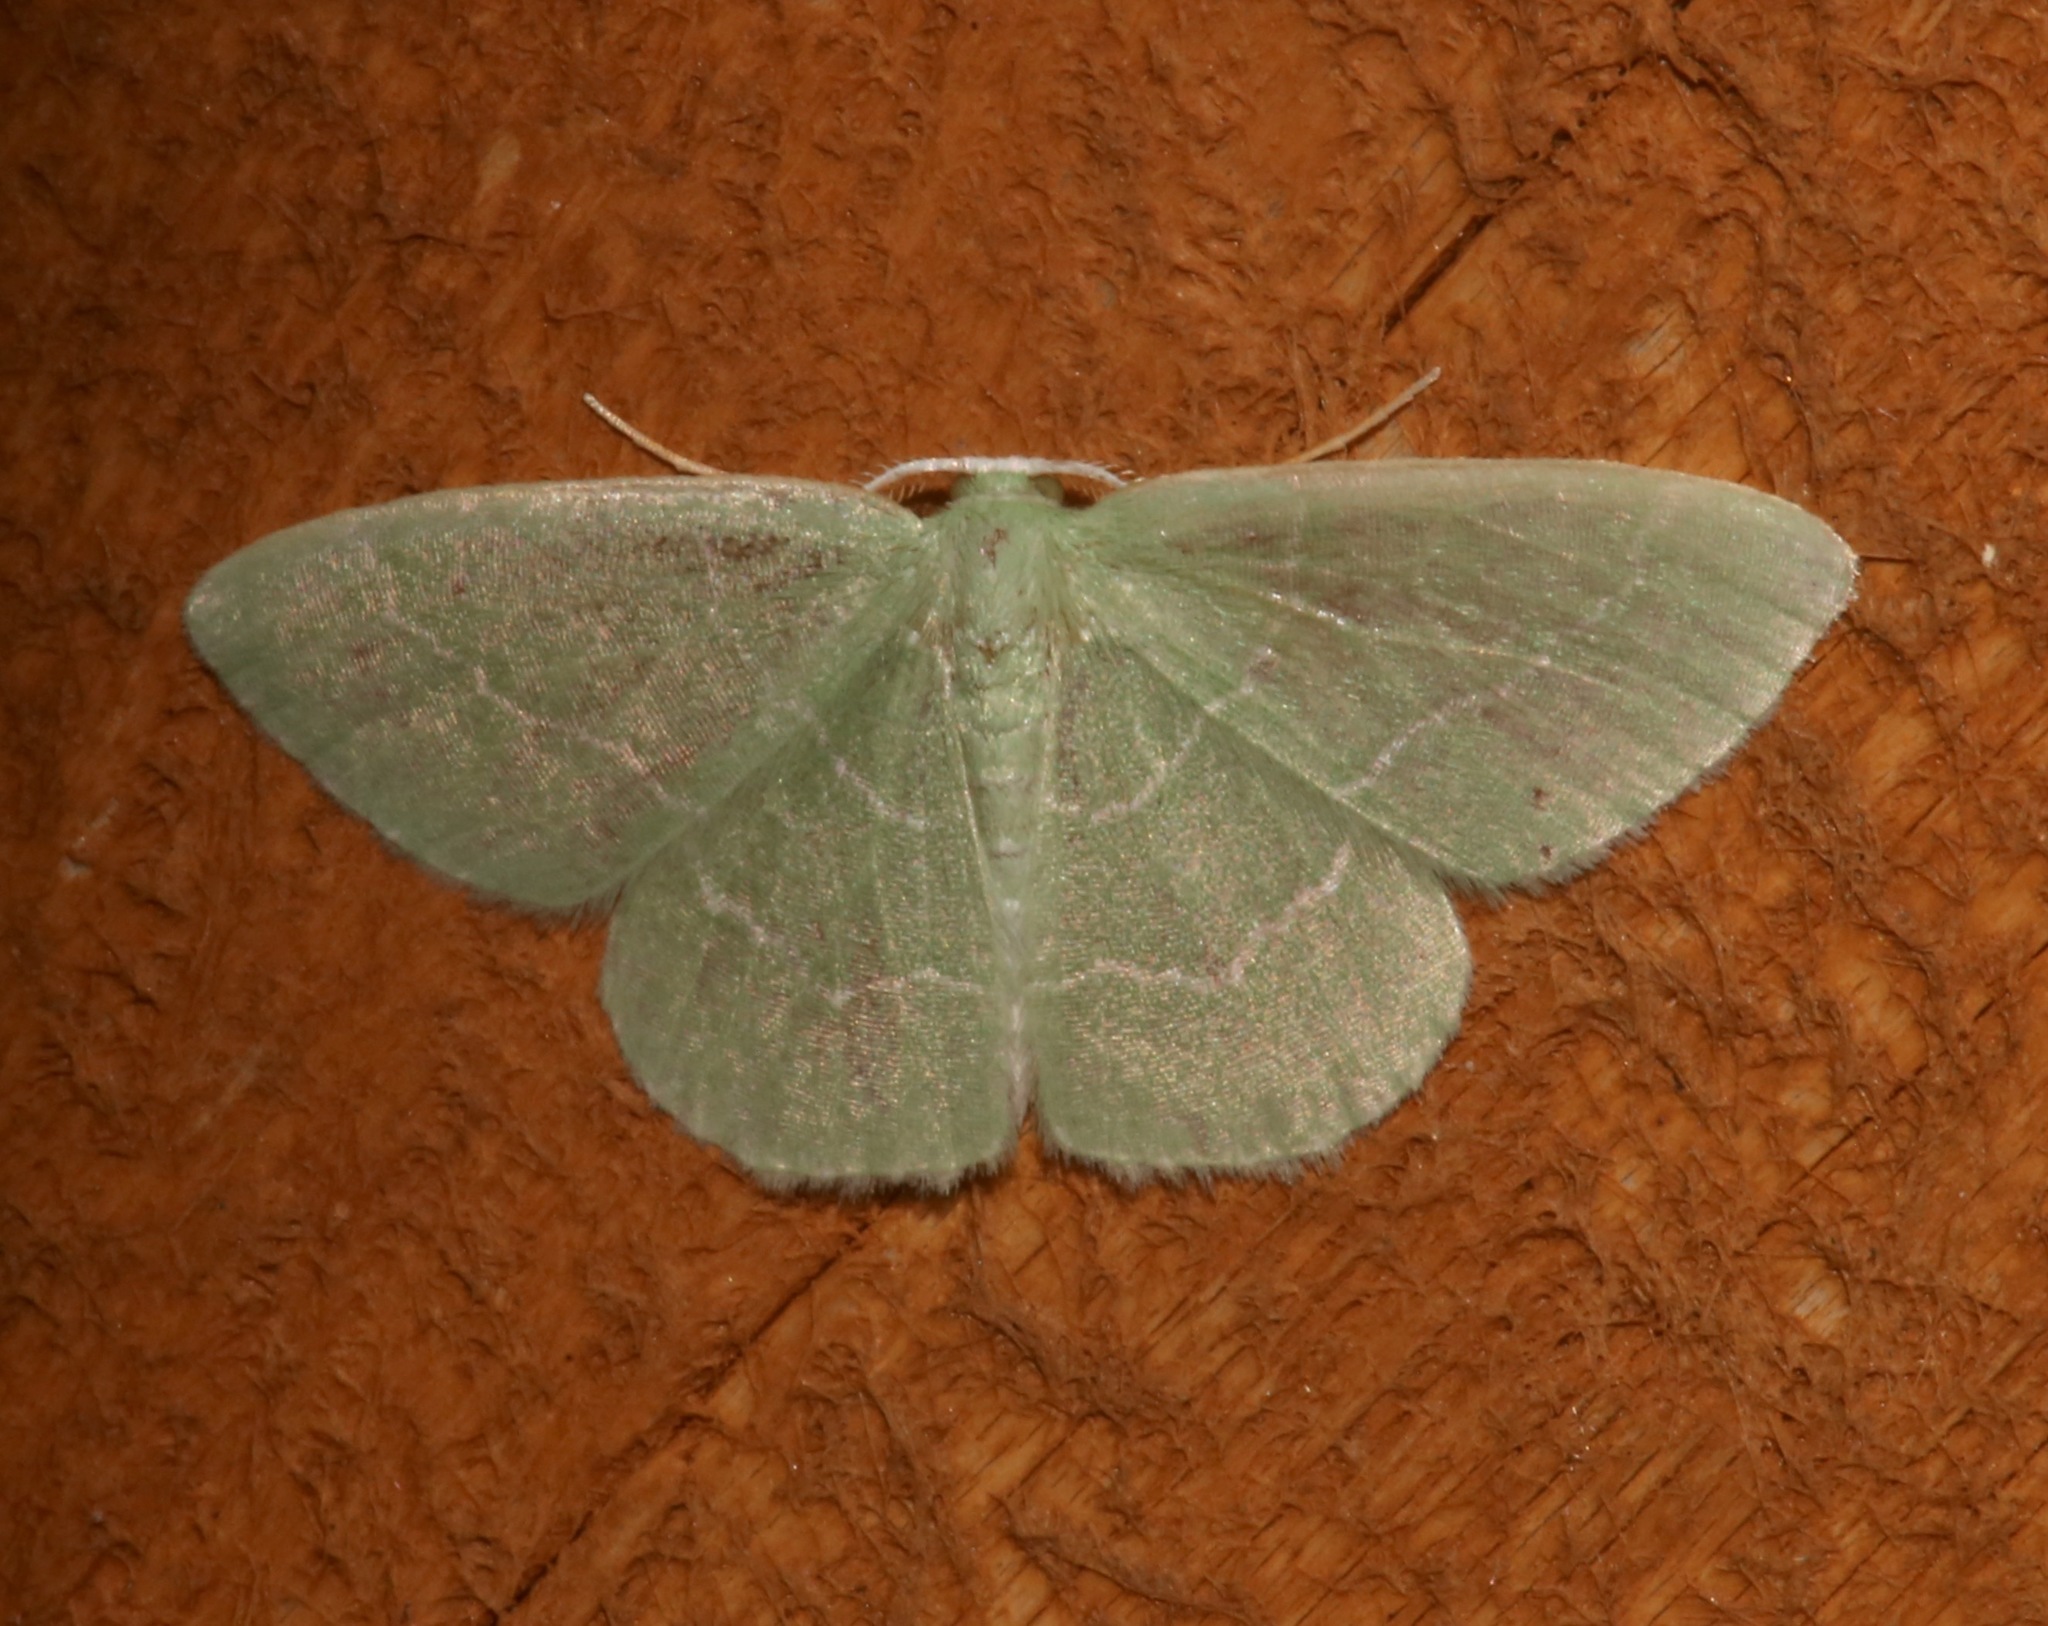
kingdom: Animalia
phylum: Arthropoda
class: Insecta
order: Lepidoptera
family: Geometridae
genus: Nemoria
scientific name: Nemoria elfa
